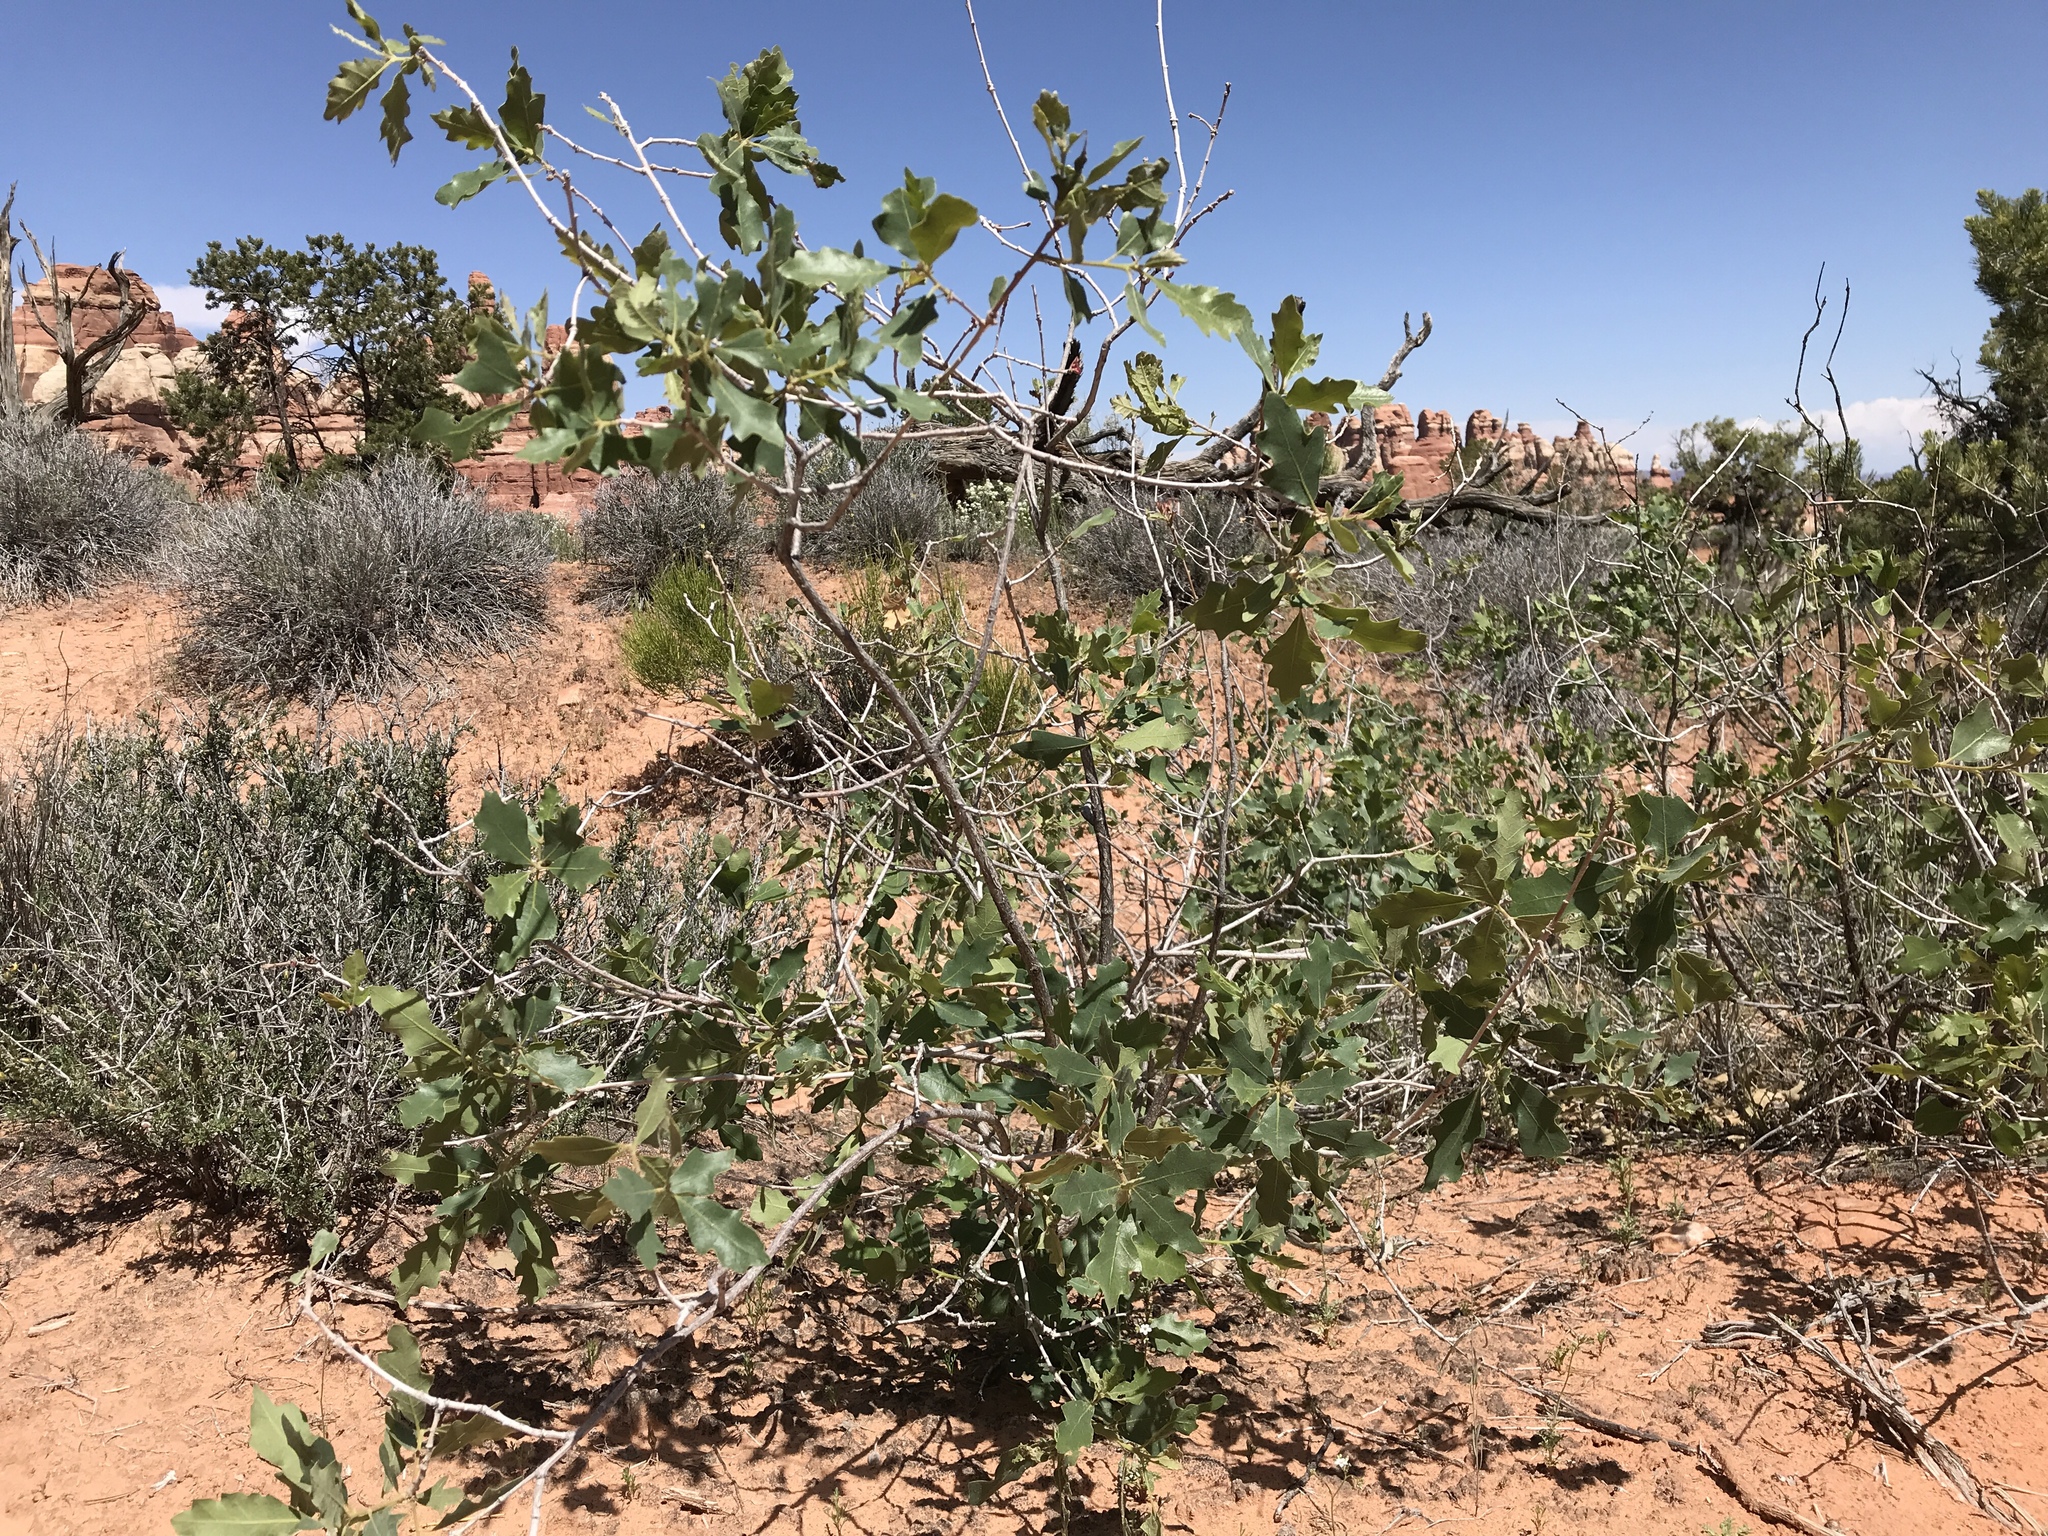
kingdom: Plantae
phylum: Tracheophyta
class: Magnoliopsida
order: Fagales
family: Fagaceae
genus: Quercus
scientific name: Quercus welshii
